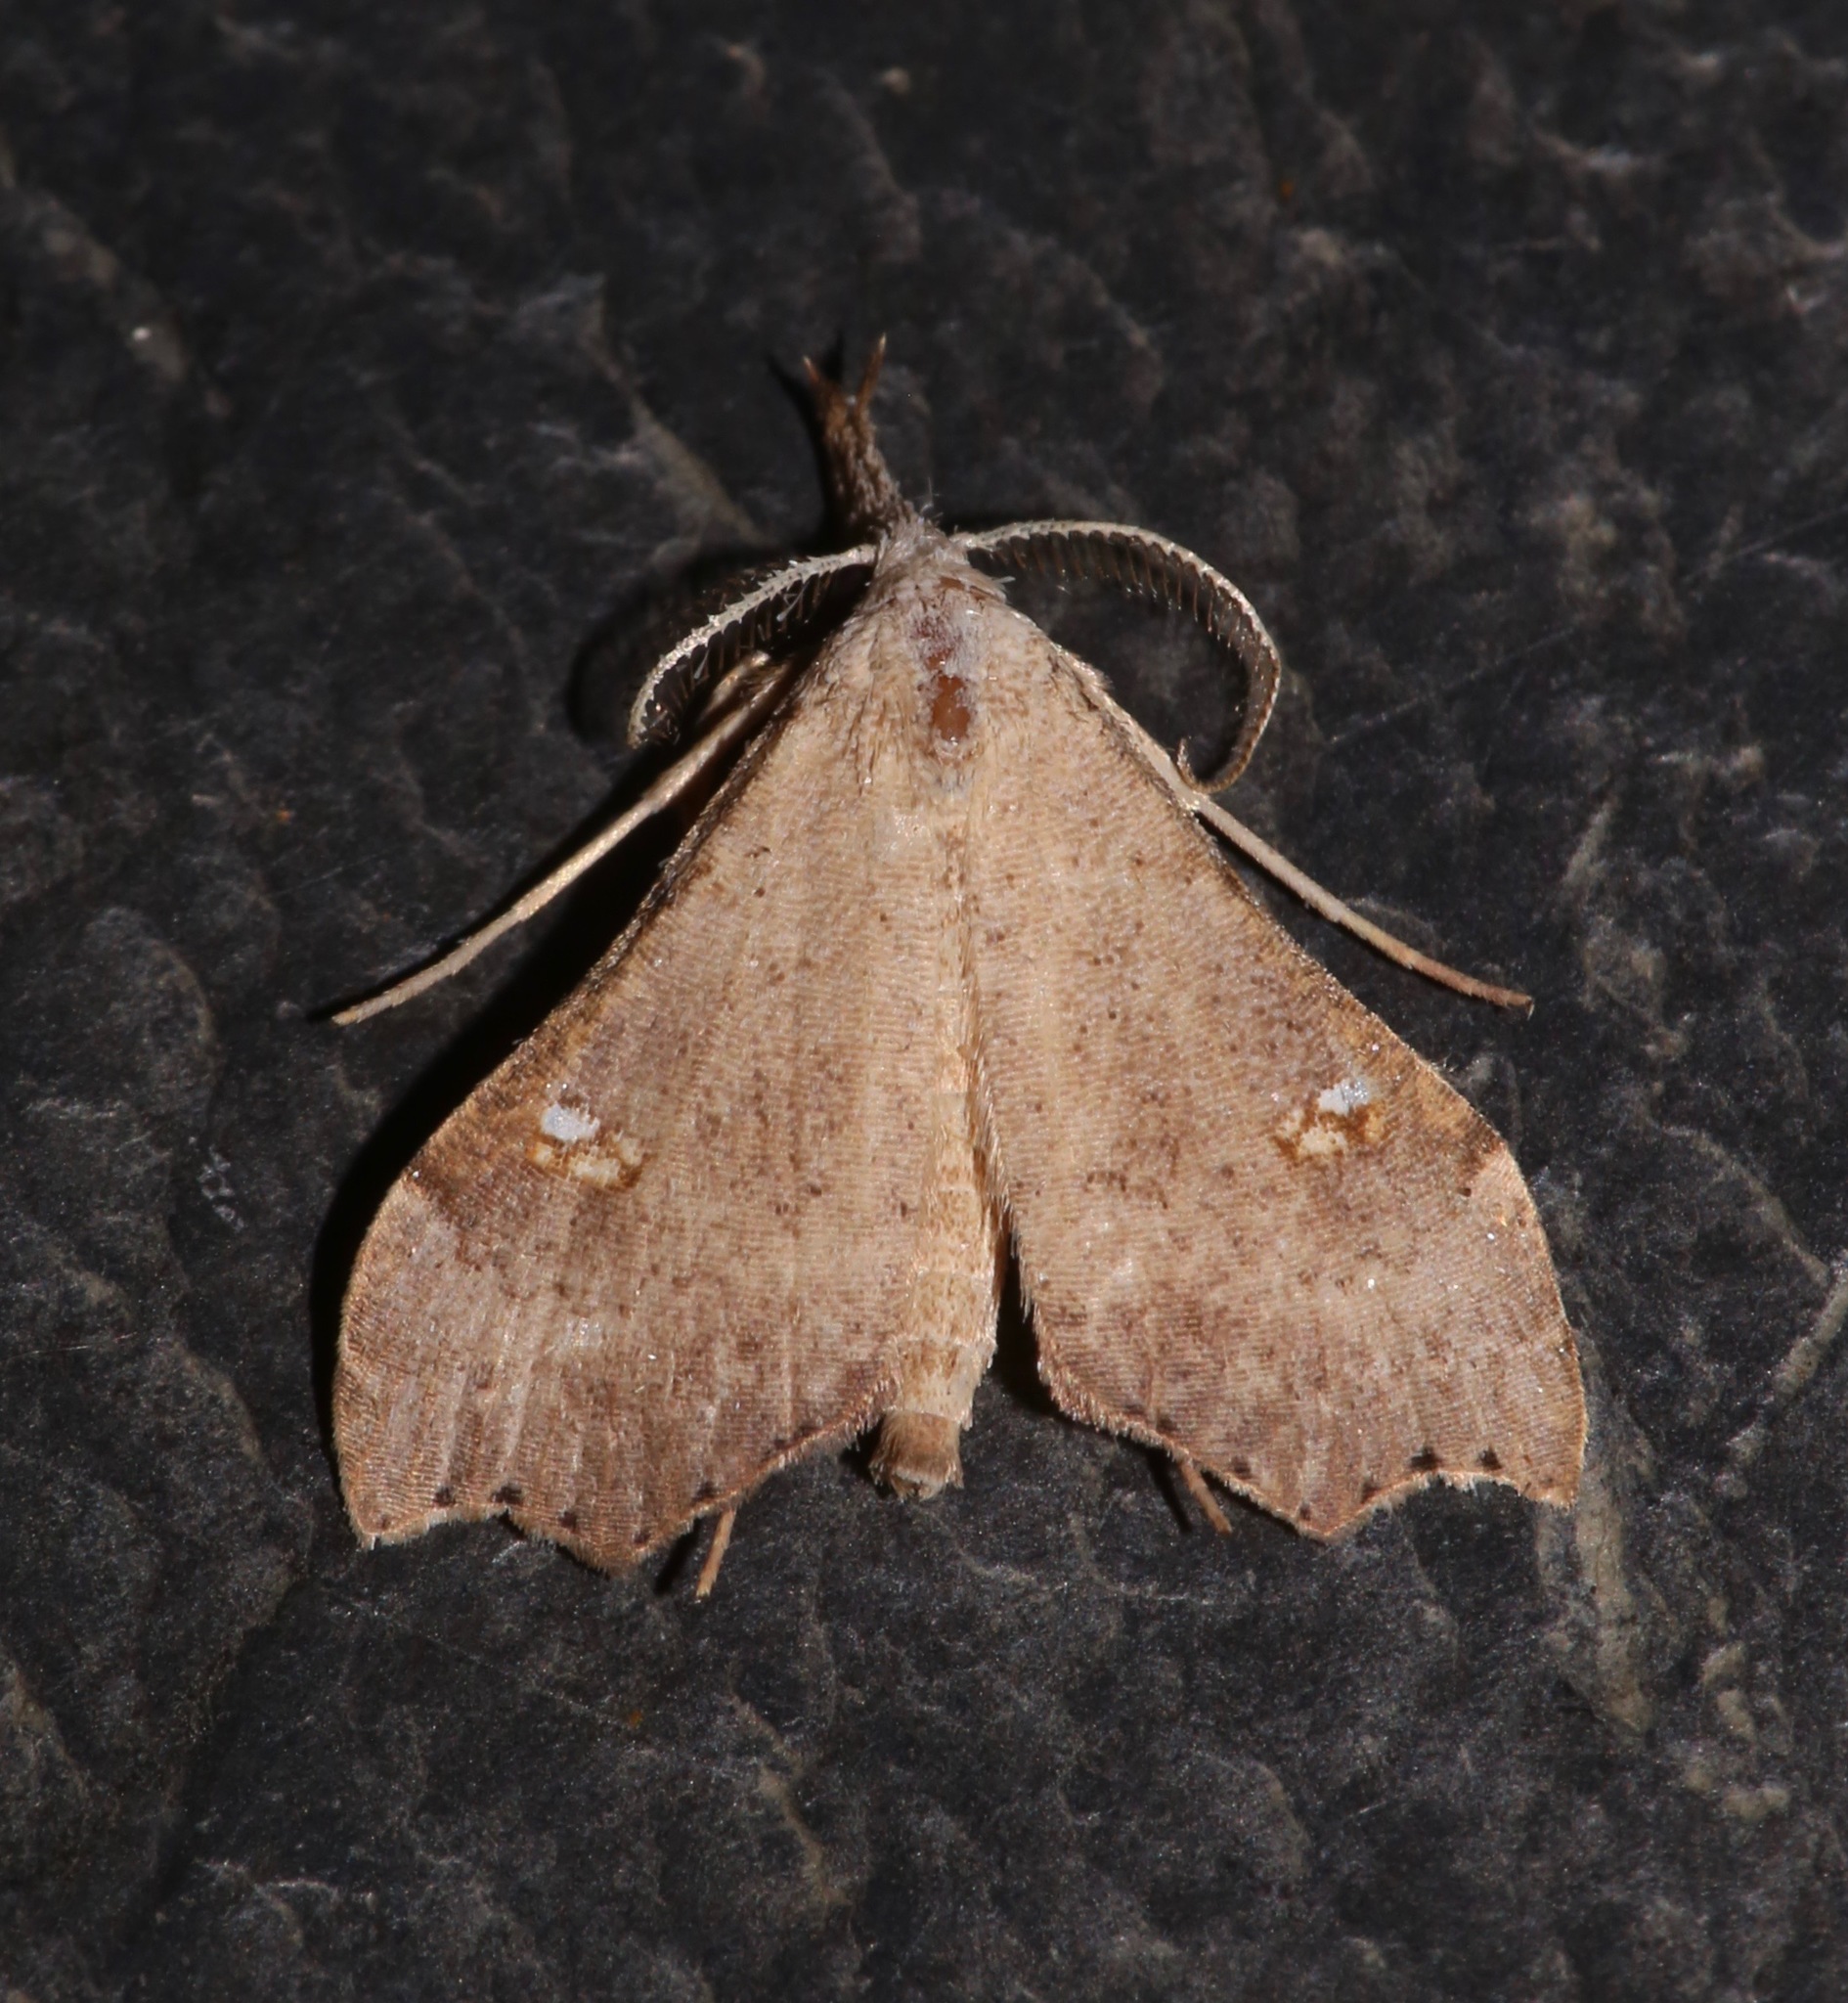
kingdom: Animalia
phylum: Arthropoda
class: Insecta
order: Lepidoptera
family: Erebidae
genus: Redectis
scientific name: Redectis vitrea
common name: White-spotted redectis
